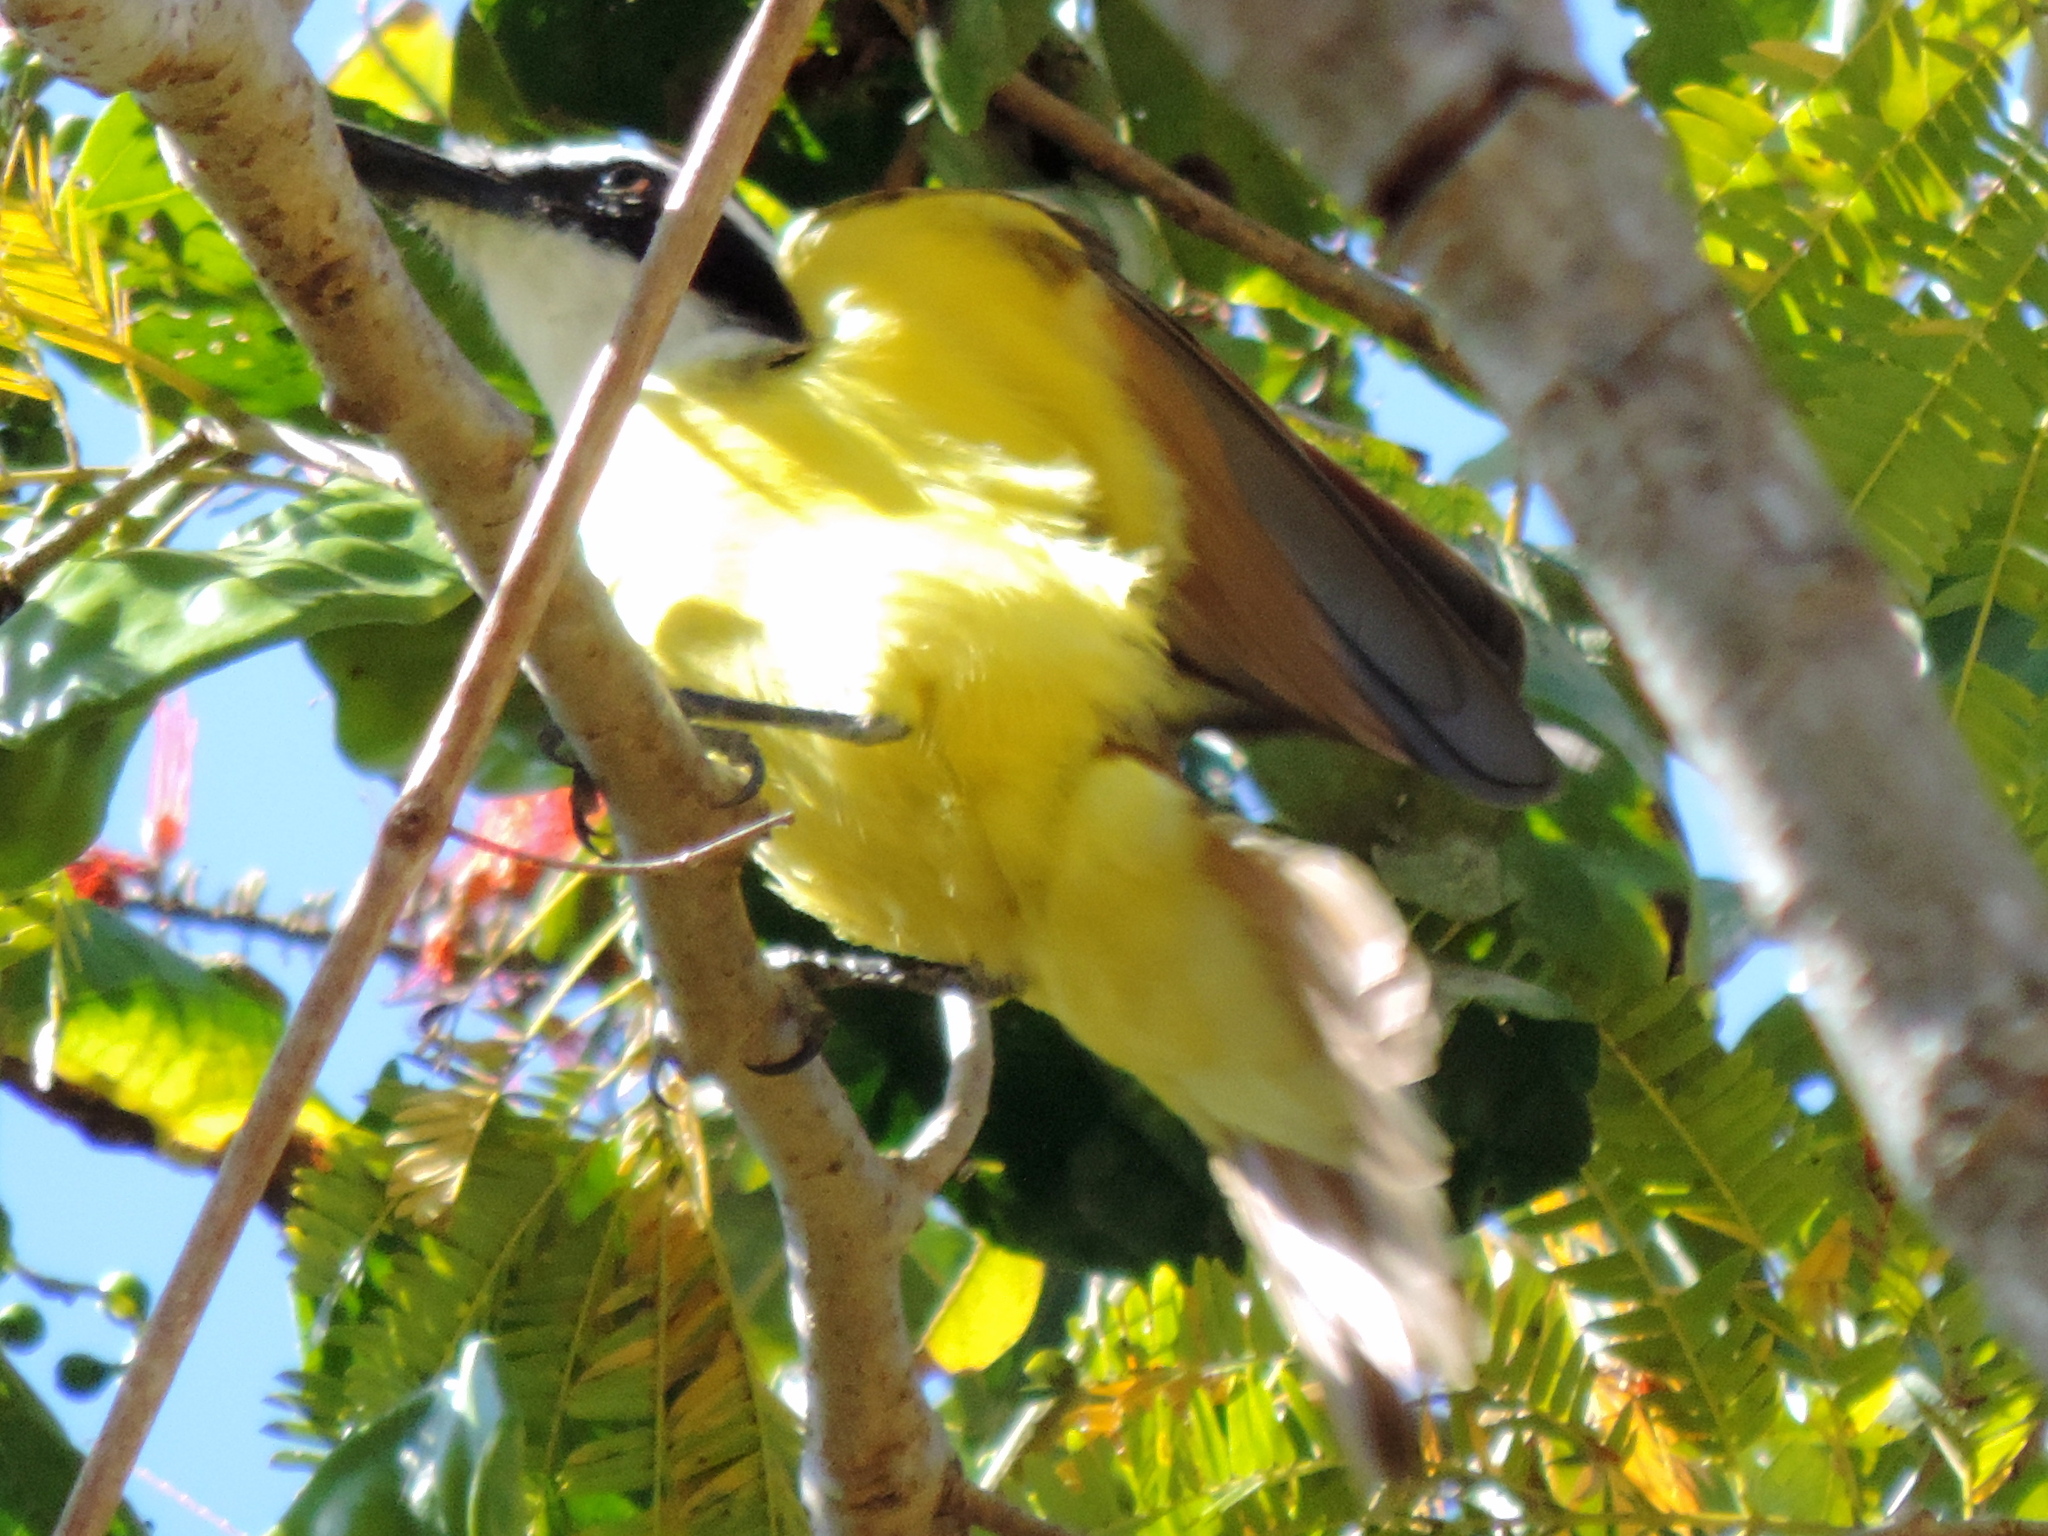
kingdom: Animalia
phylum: Chordata
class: Aves
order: Passeriformes
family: Tyrannidae
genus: Pitangus
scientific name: Pitangus sulphuratus
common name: Great kiskadee
